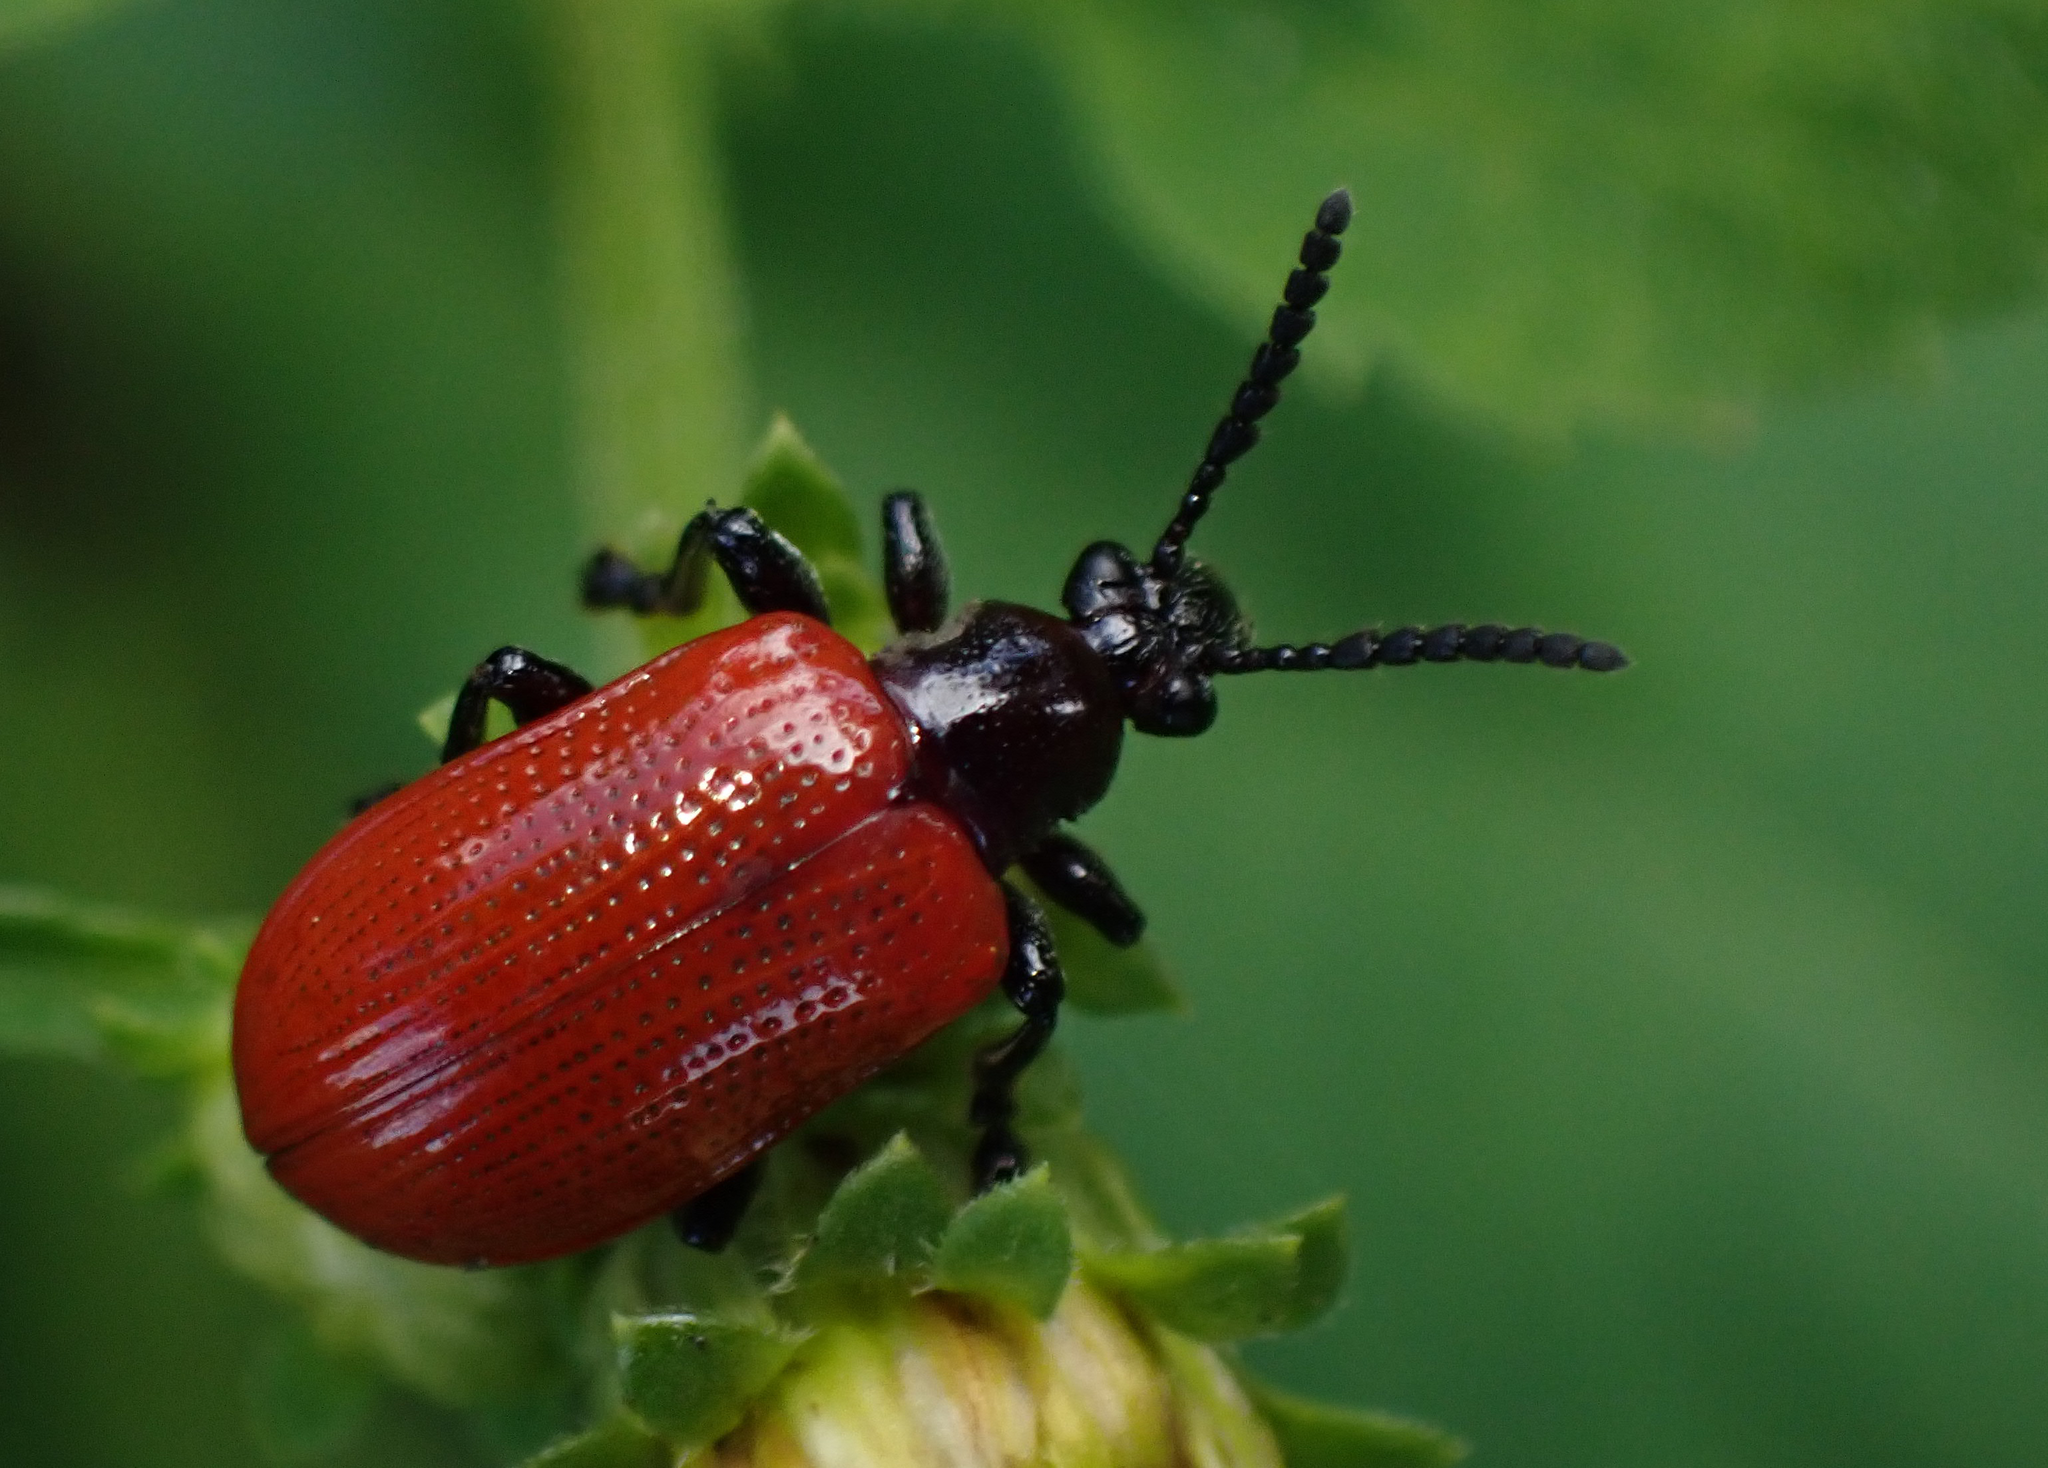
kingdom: Animalia
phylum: Arthropoda
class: Insecta
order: Coleoptera
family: Chrysomelidae
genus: Lilioceris
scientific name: Lilioceris cheni
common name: Leaf beetle
